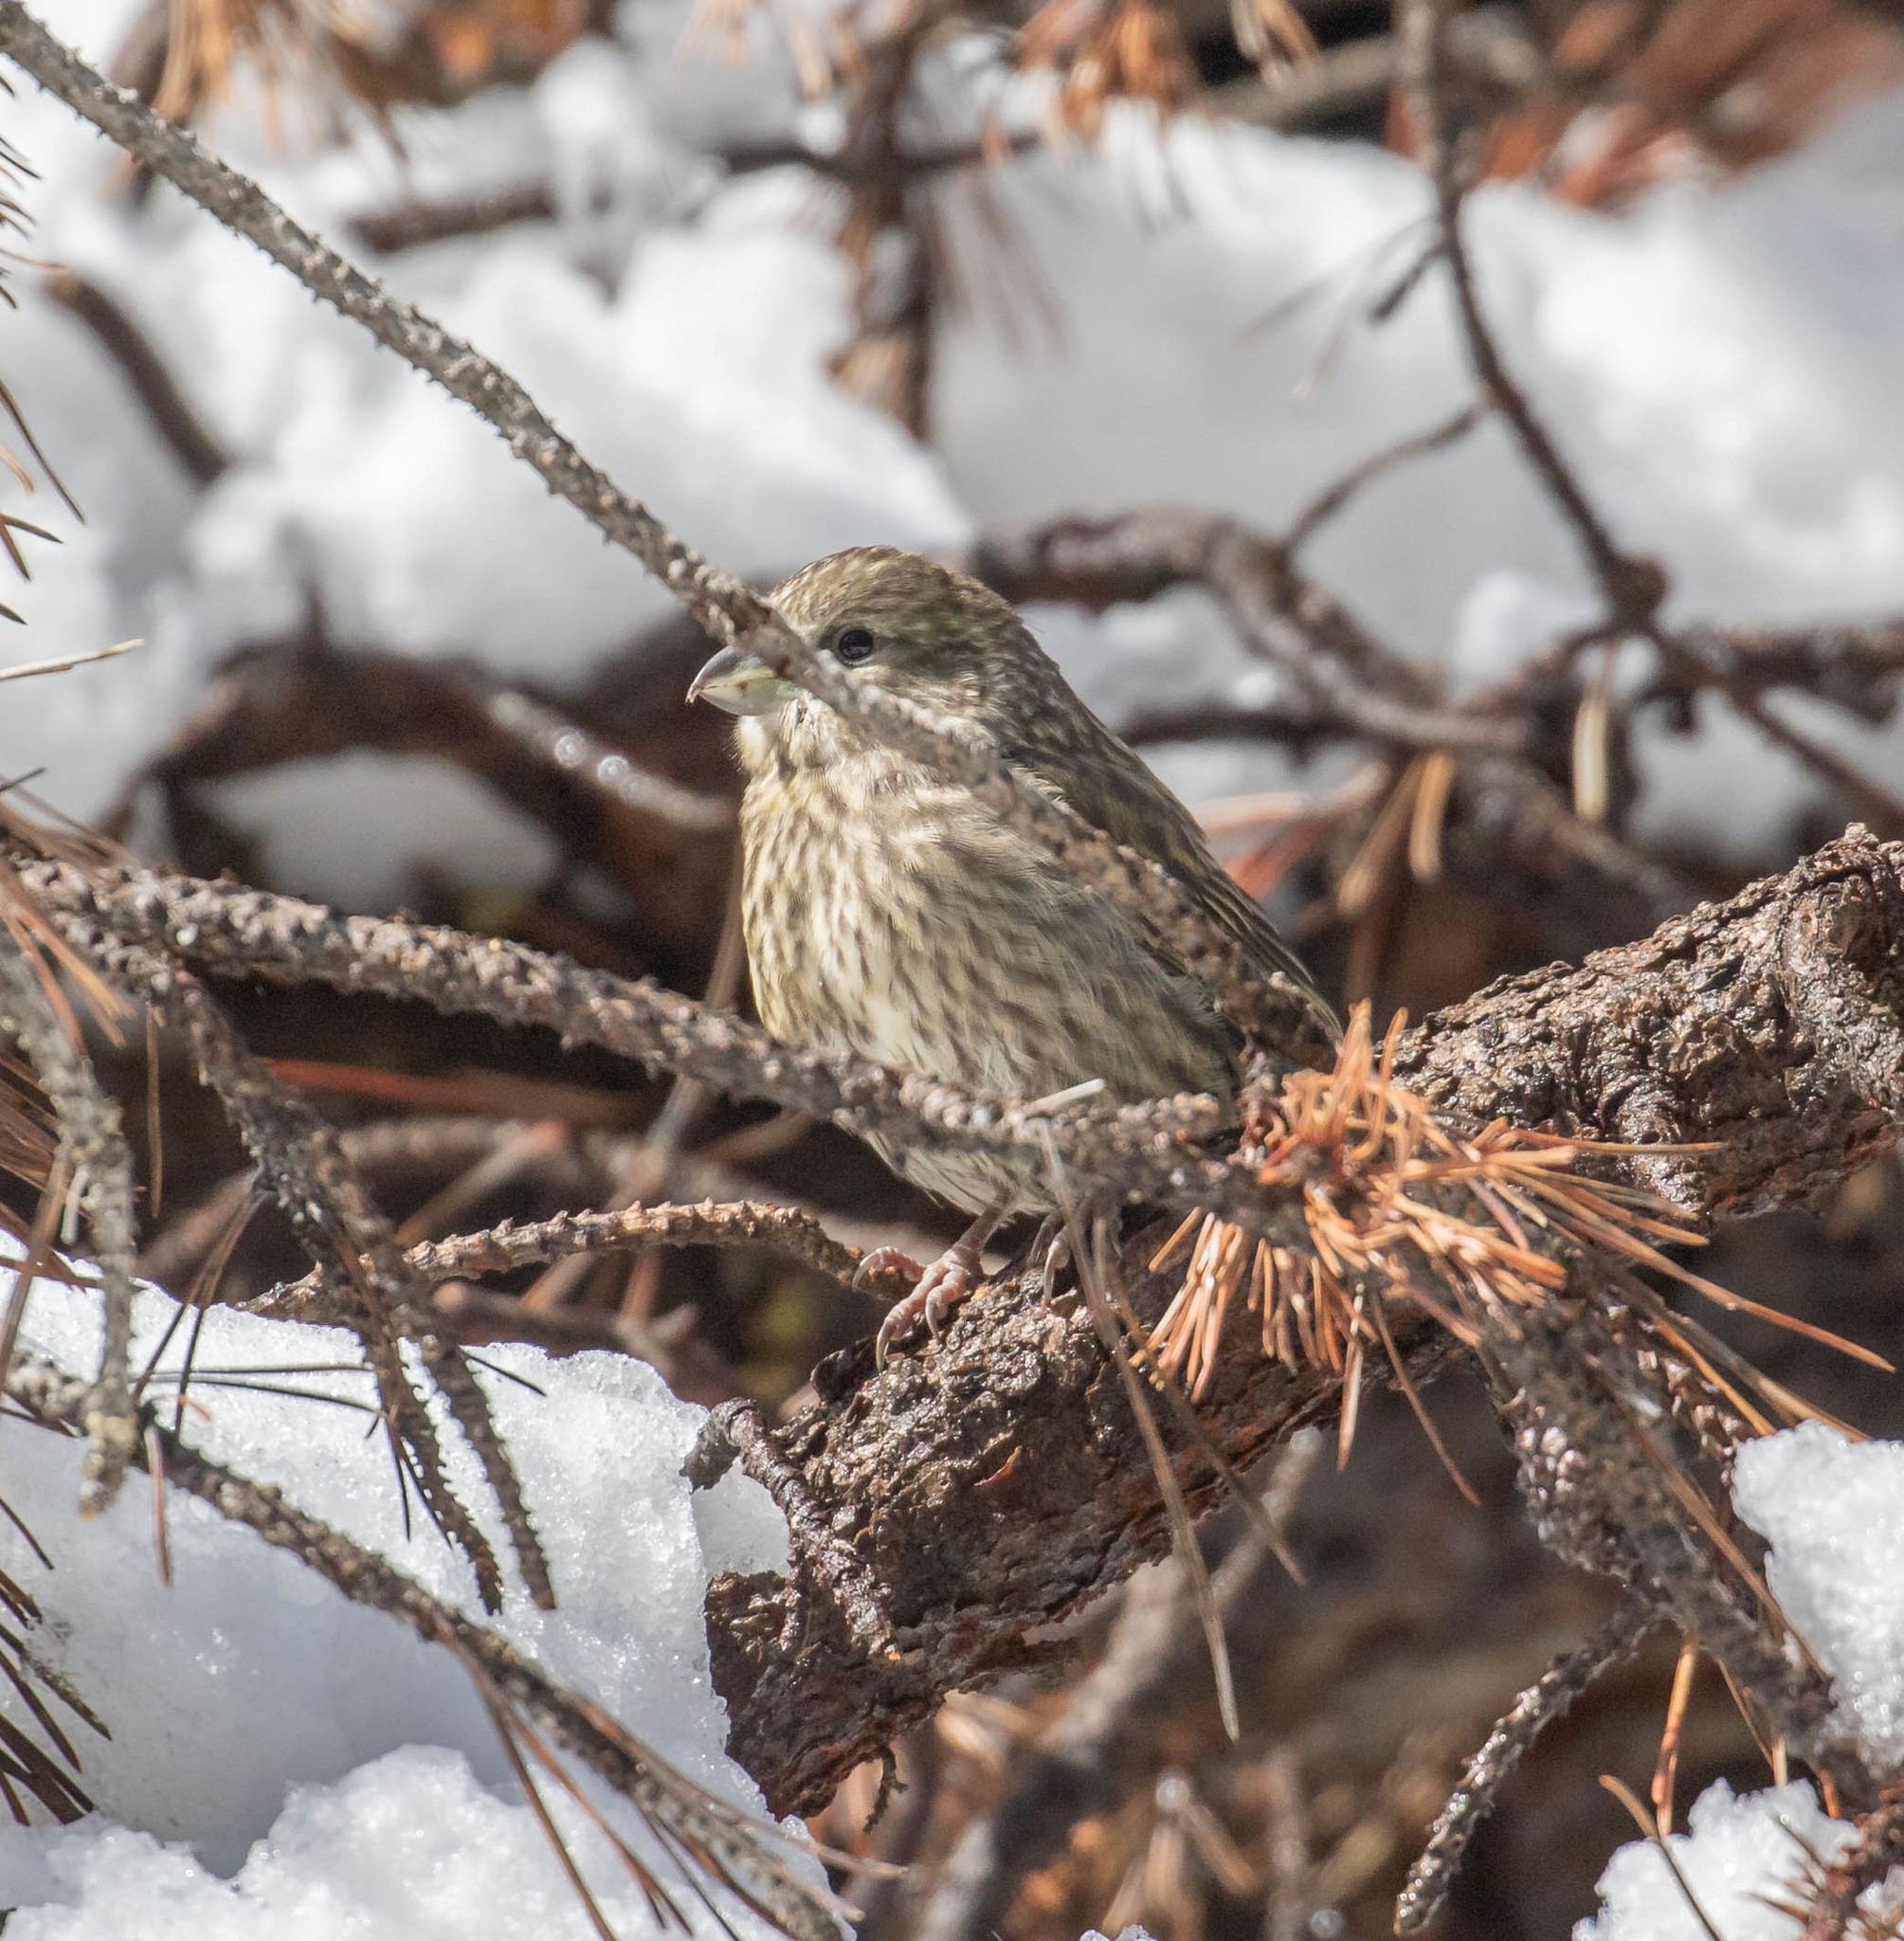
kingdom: Animalia
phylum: Chordata
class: Aves
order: Passeriformes
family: Fringillidae
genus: Loxia
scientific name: Loxia sinesciuris
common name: Cassia crossbill
